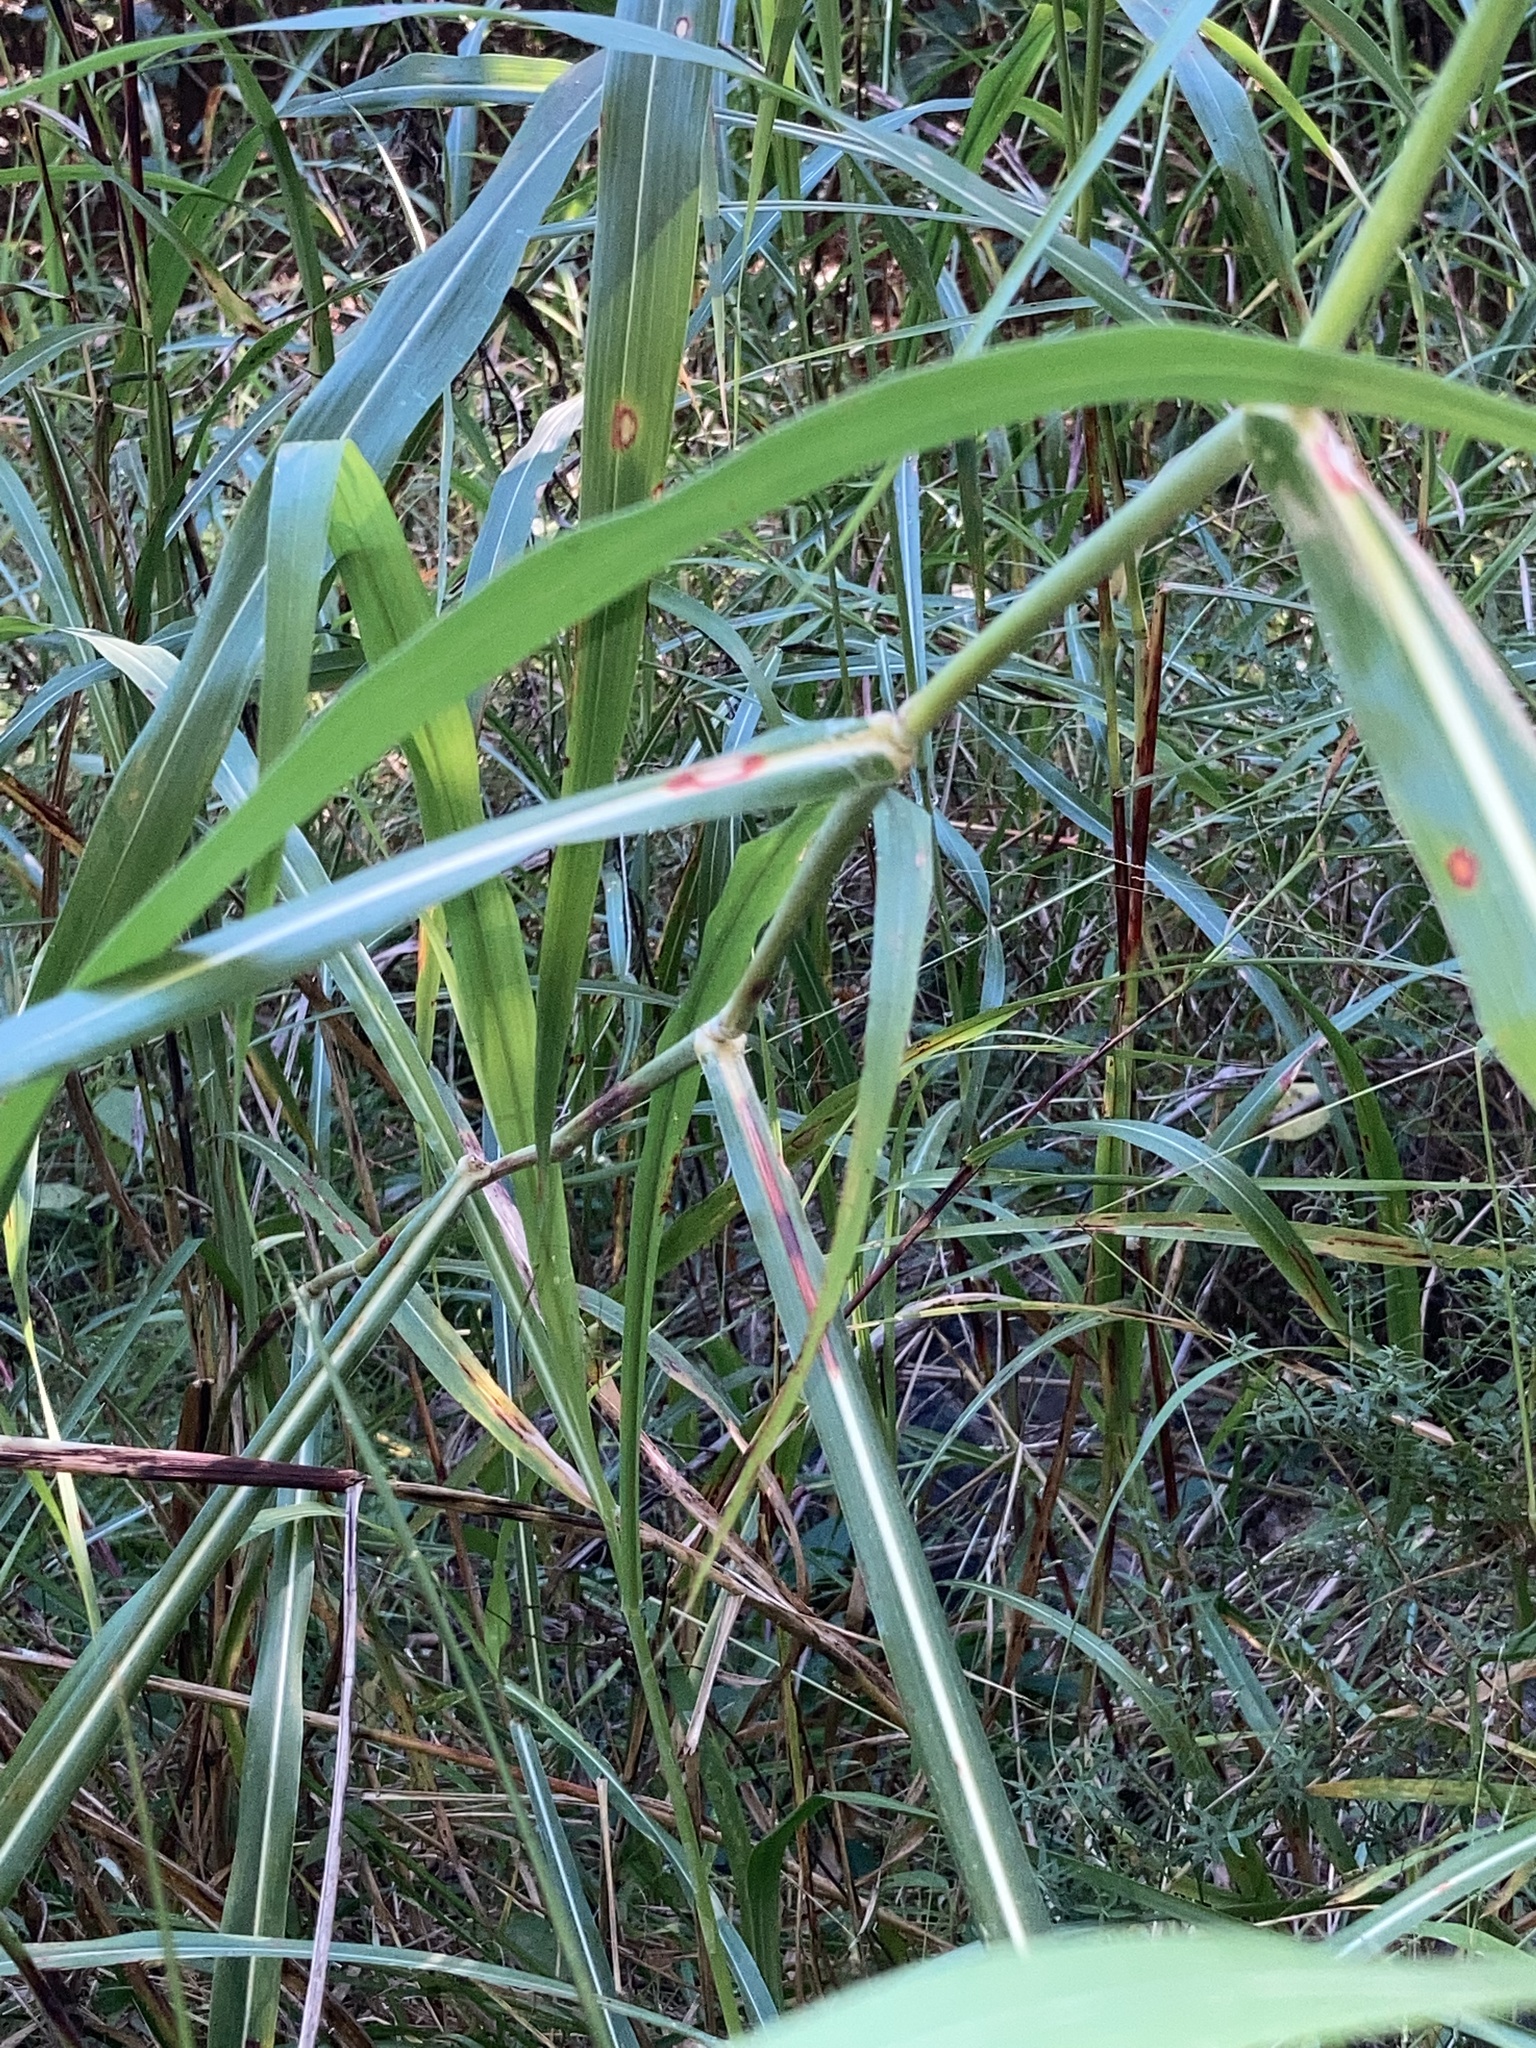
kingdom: Plantae
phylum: Tracheophyta
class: Liliopsida
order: Poales
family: Poaceae
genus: Sorghum
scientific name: Sorghum halepense
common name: Johnson-grass
